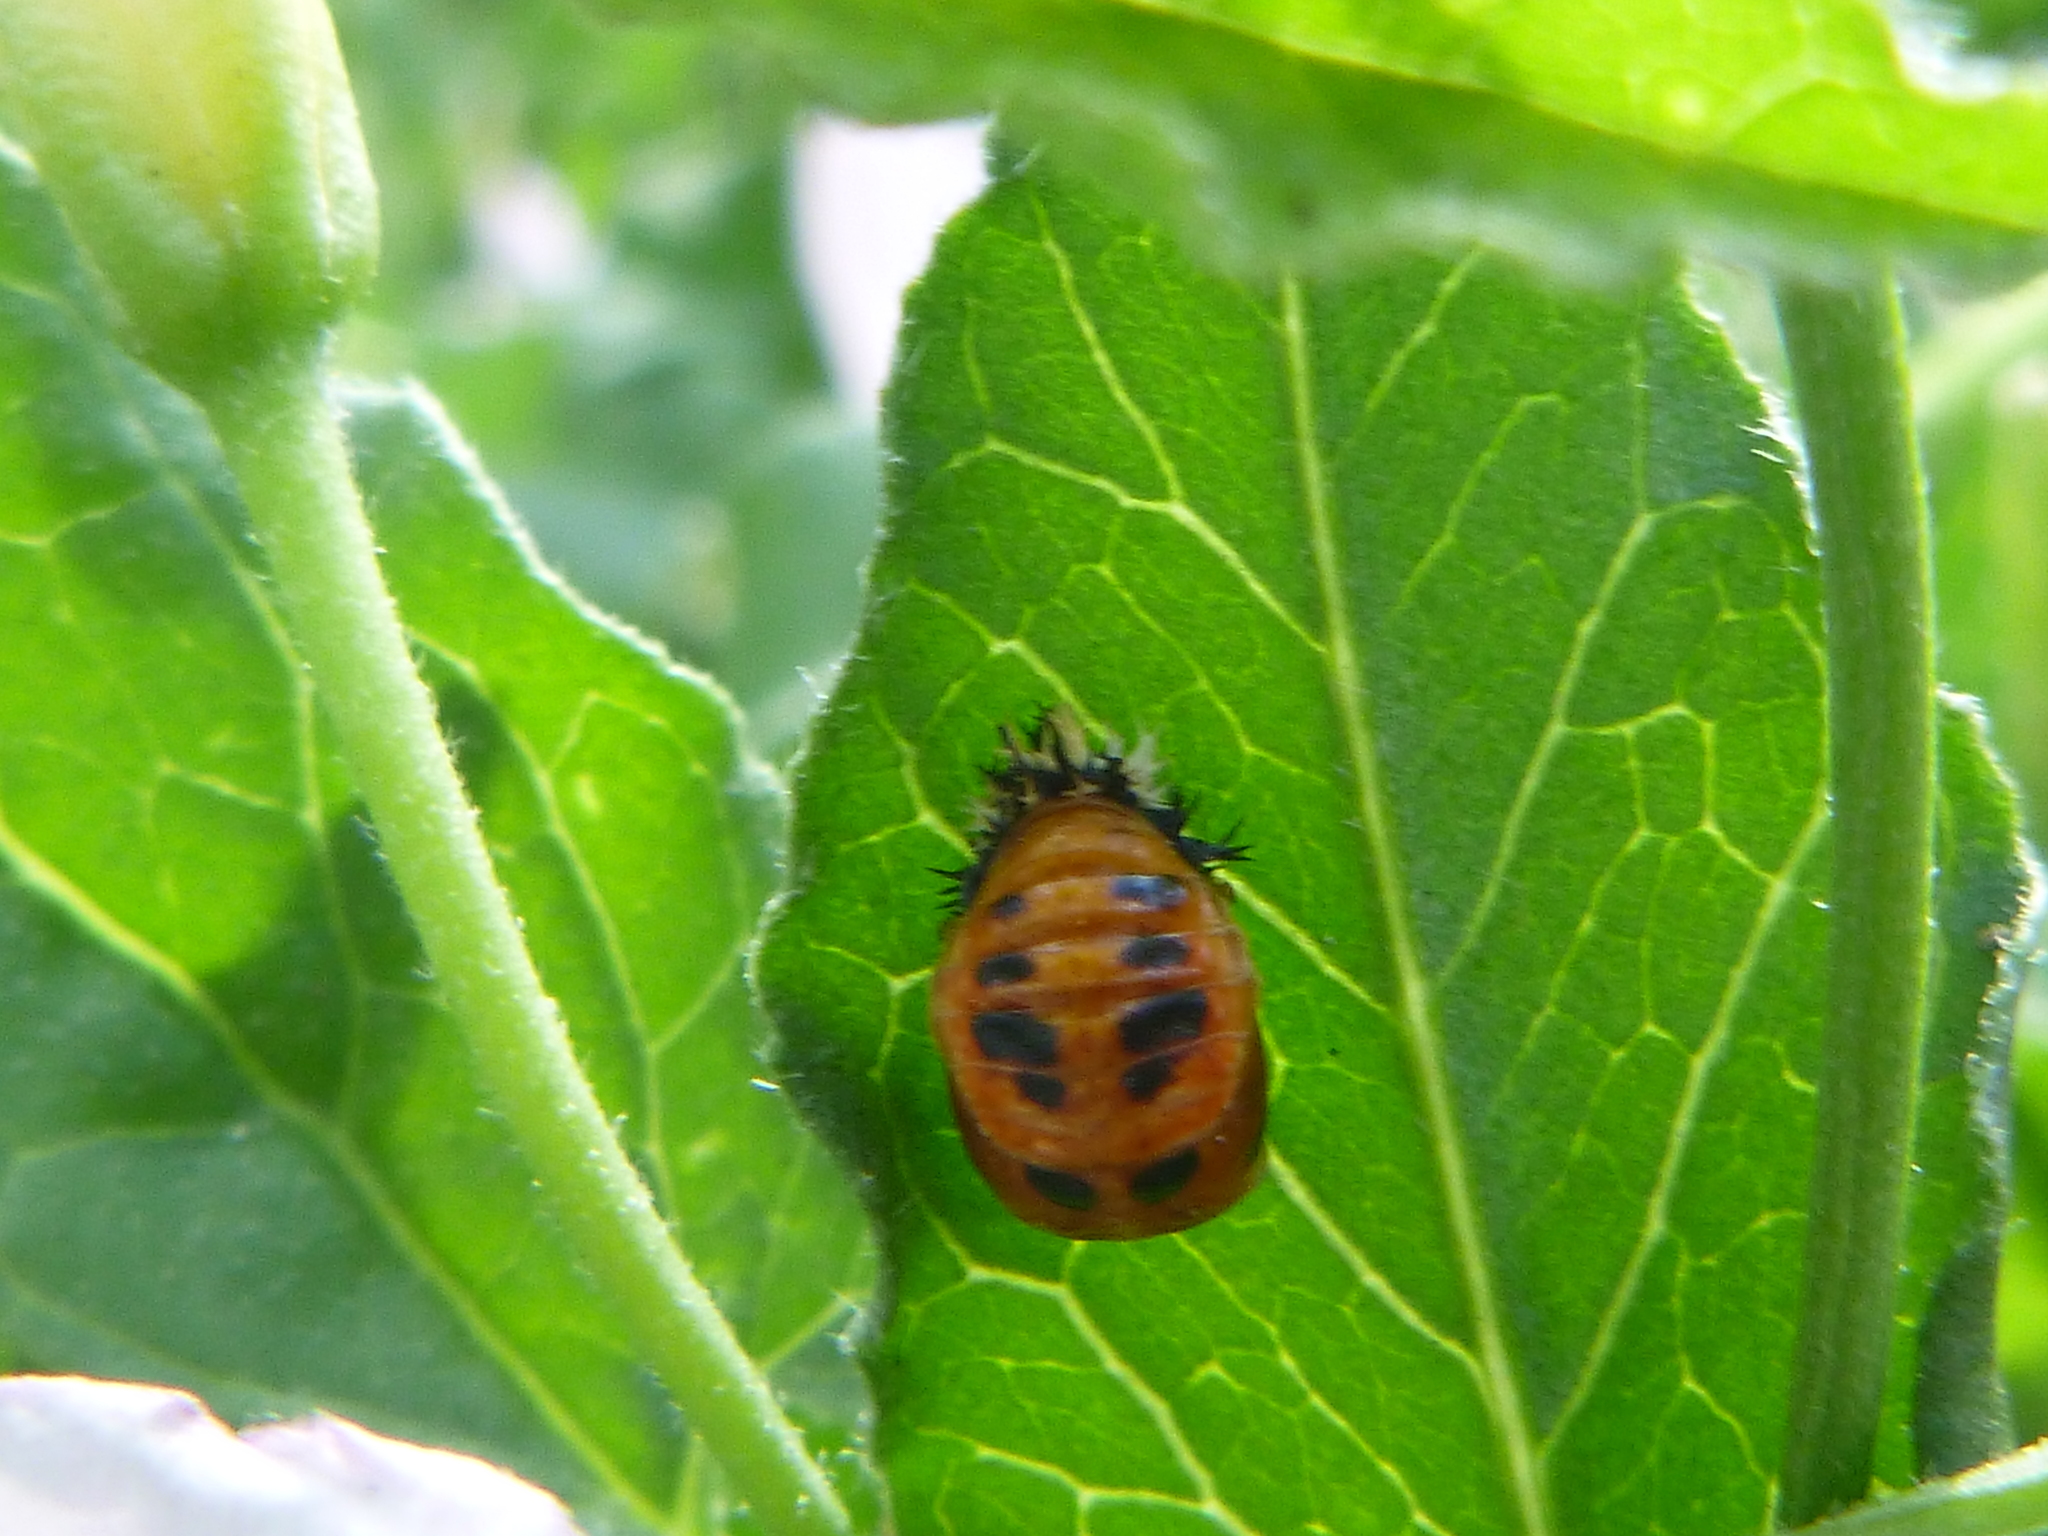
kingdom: Animalia
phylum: Arthropoda
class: Insecta
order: Coleoptera
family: Coccinellidae
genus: Harmonia
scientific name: Harmonia axyridis
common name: Harlequin ladybird
